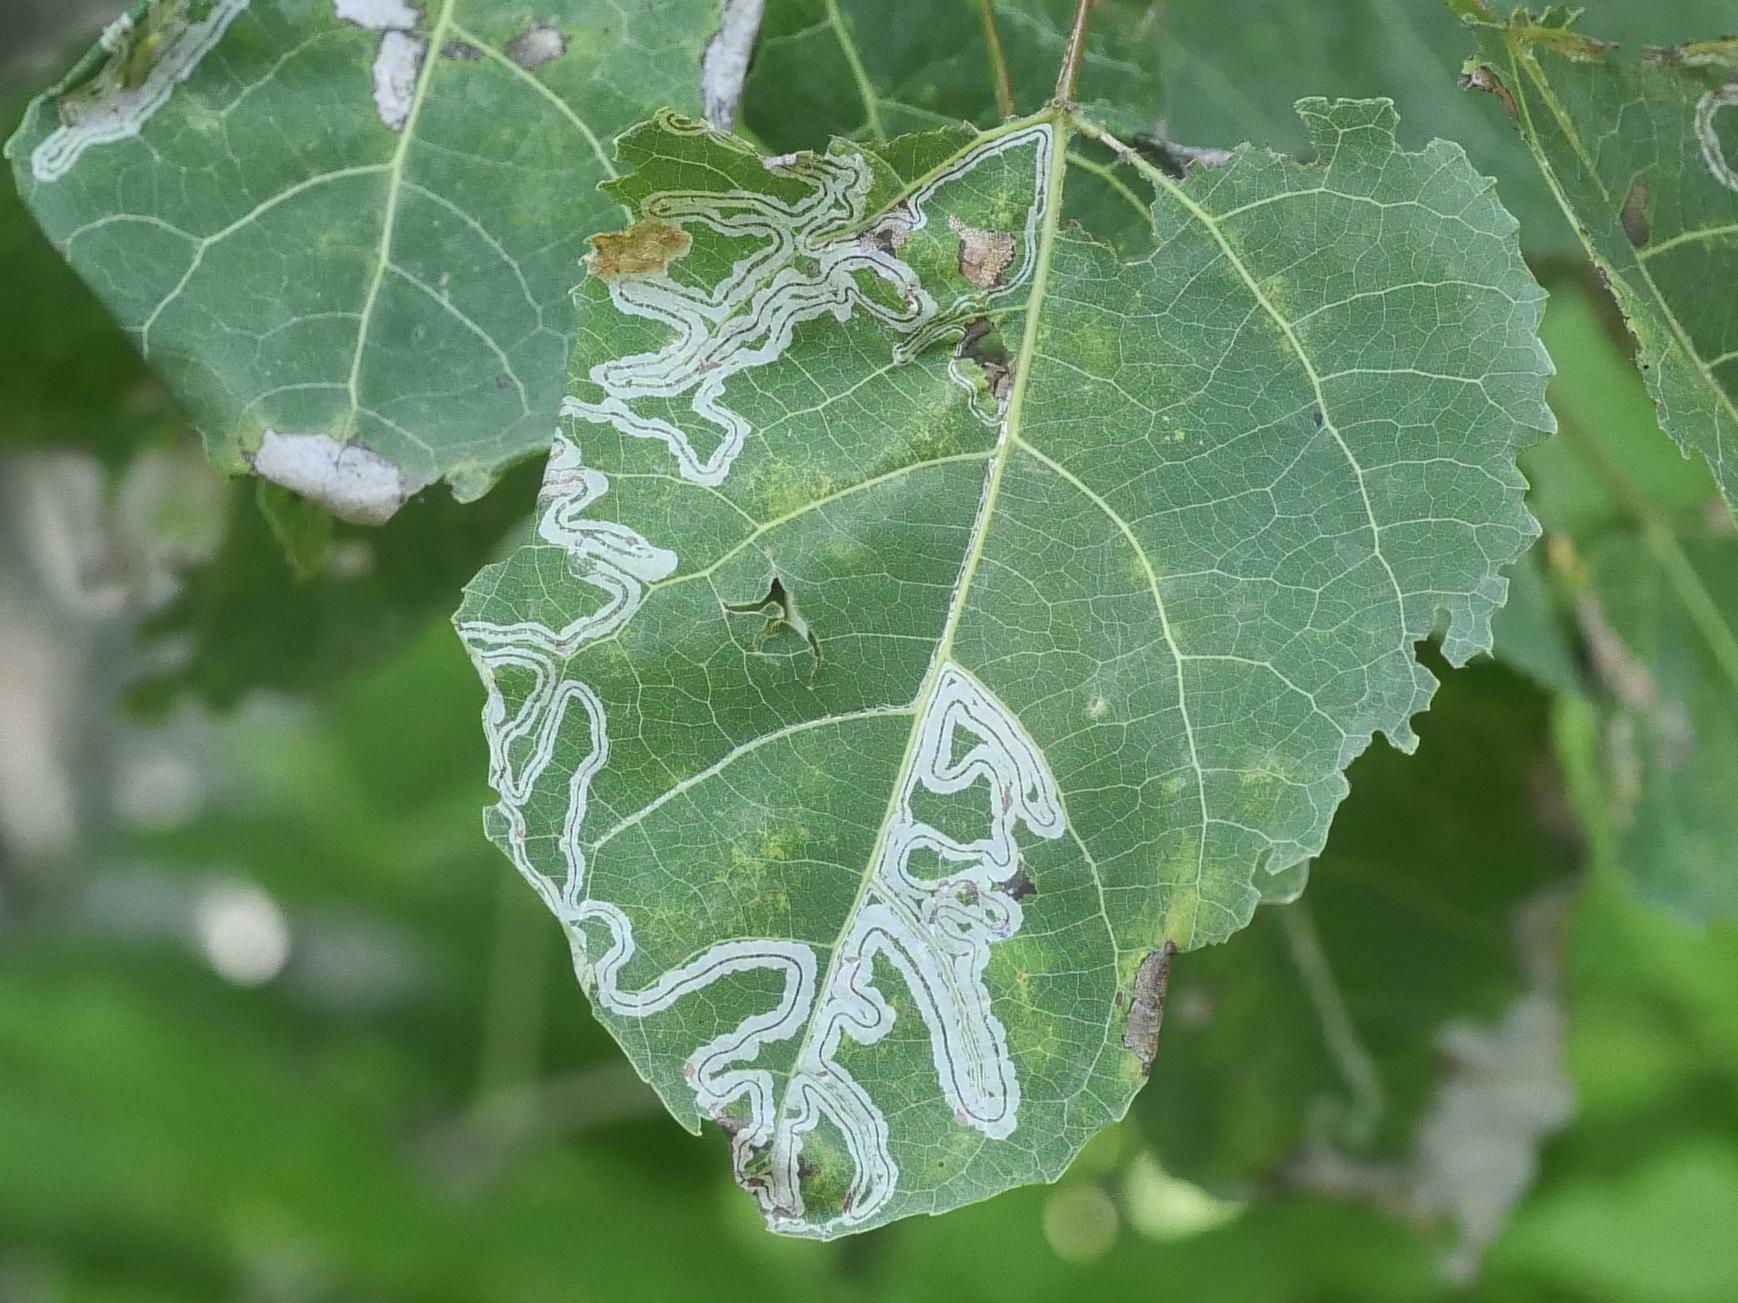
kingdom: Animalia
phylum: Arthropoda
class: Insecta
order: Lepidoptera
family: Gracillariidae
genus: Phyllocnistis
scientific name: Phyllocnistis populiella
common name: Aspen serpentine leafminer moth
